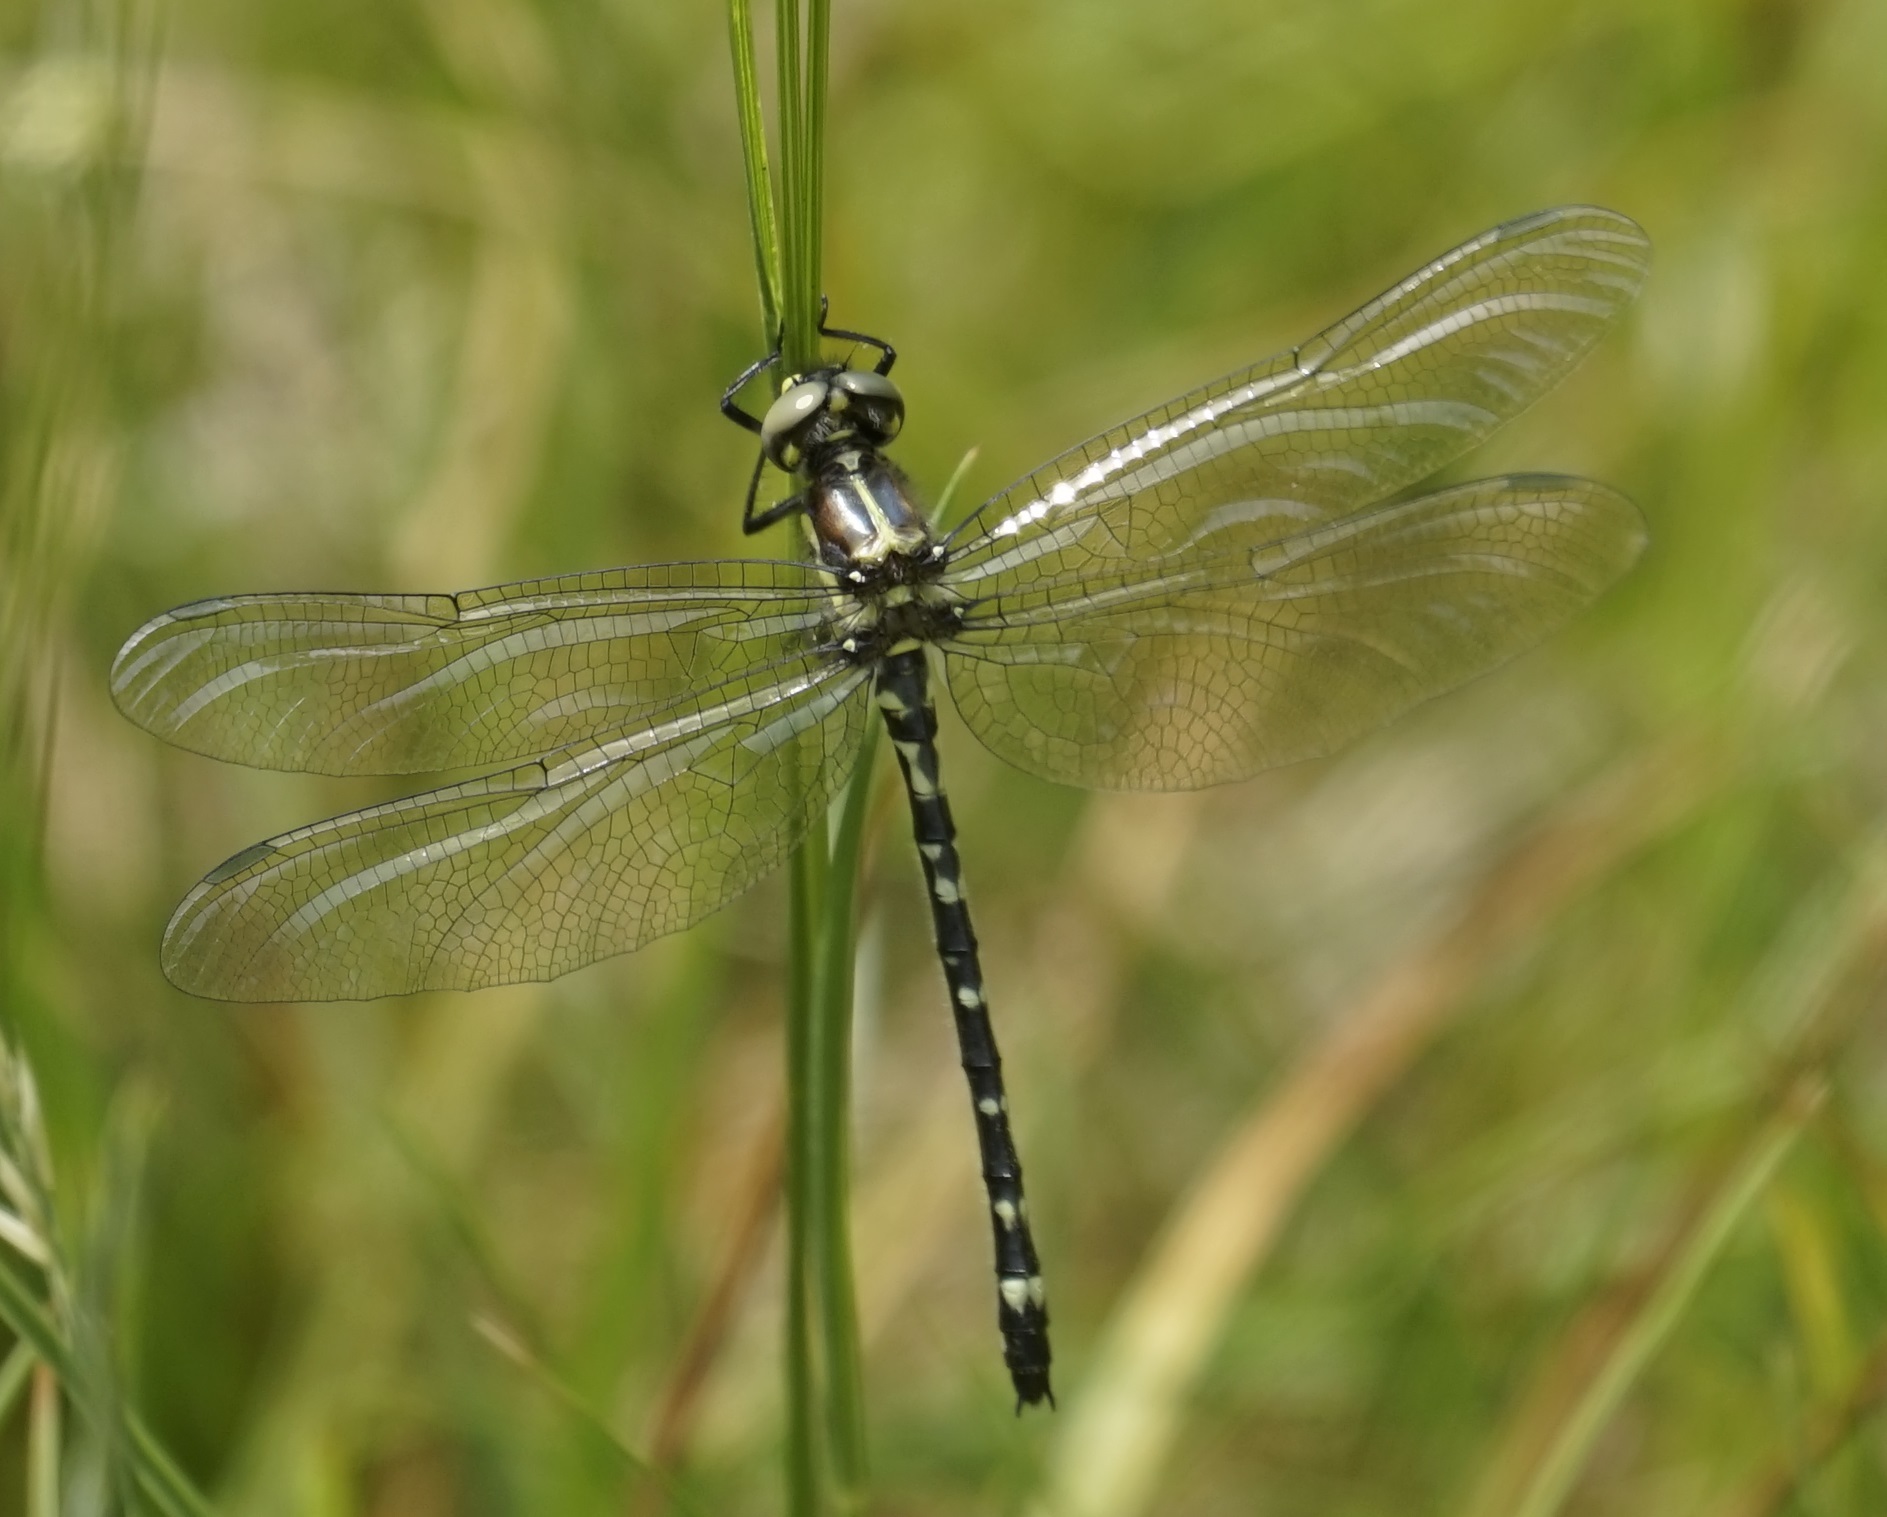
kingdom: Animalia
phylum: Arthropoda
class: Insecta
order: Odonata
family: Synthemistidae
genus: Eusynthemis
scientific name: Eusynthemis brevistyla
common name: Small tigertail
